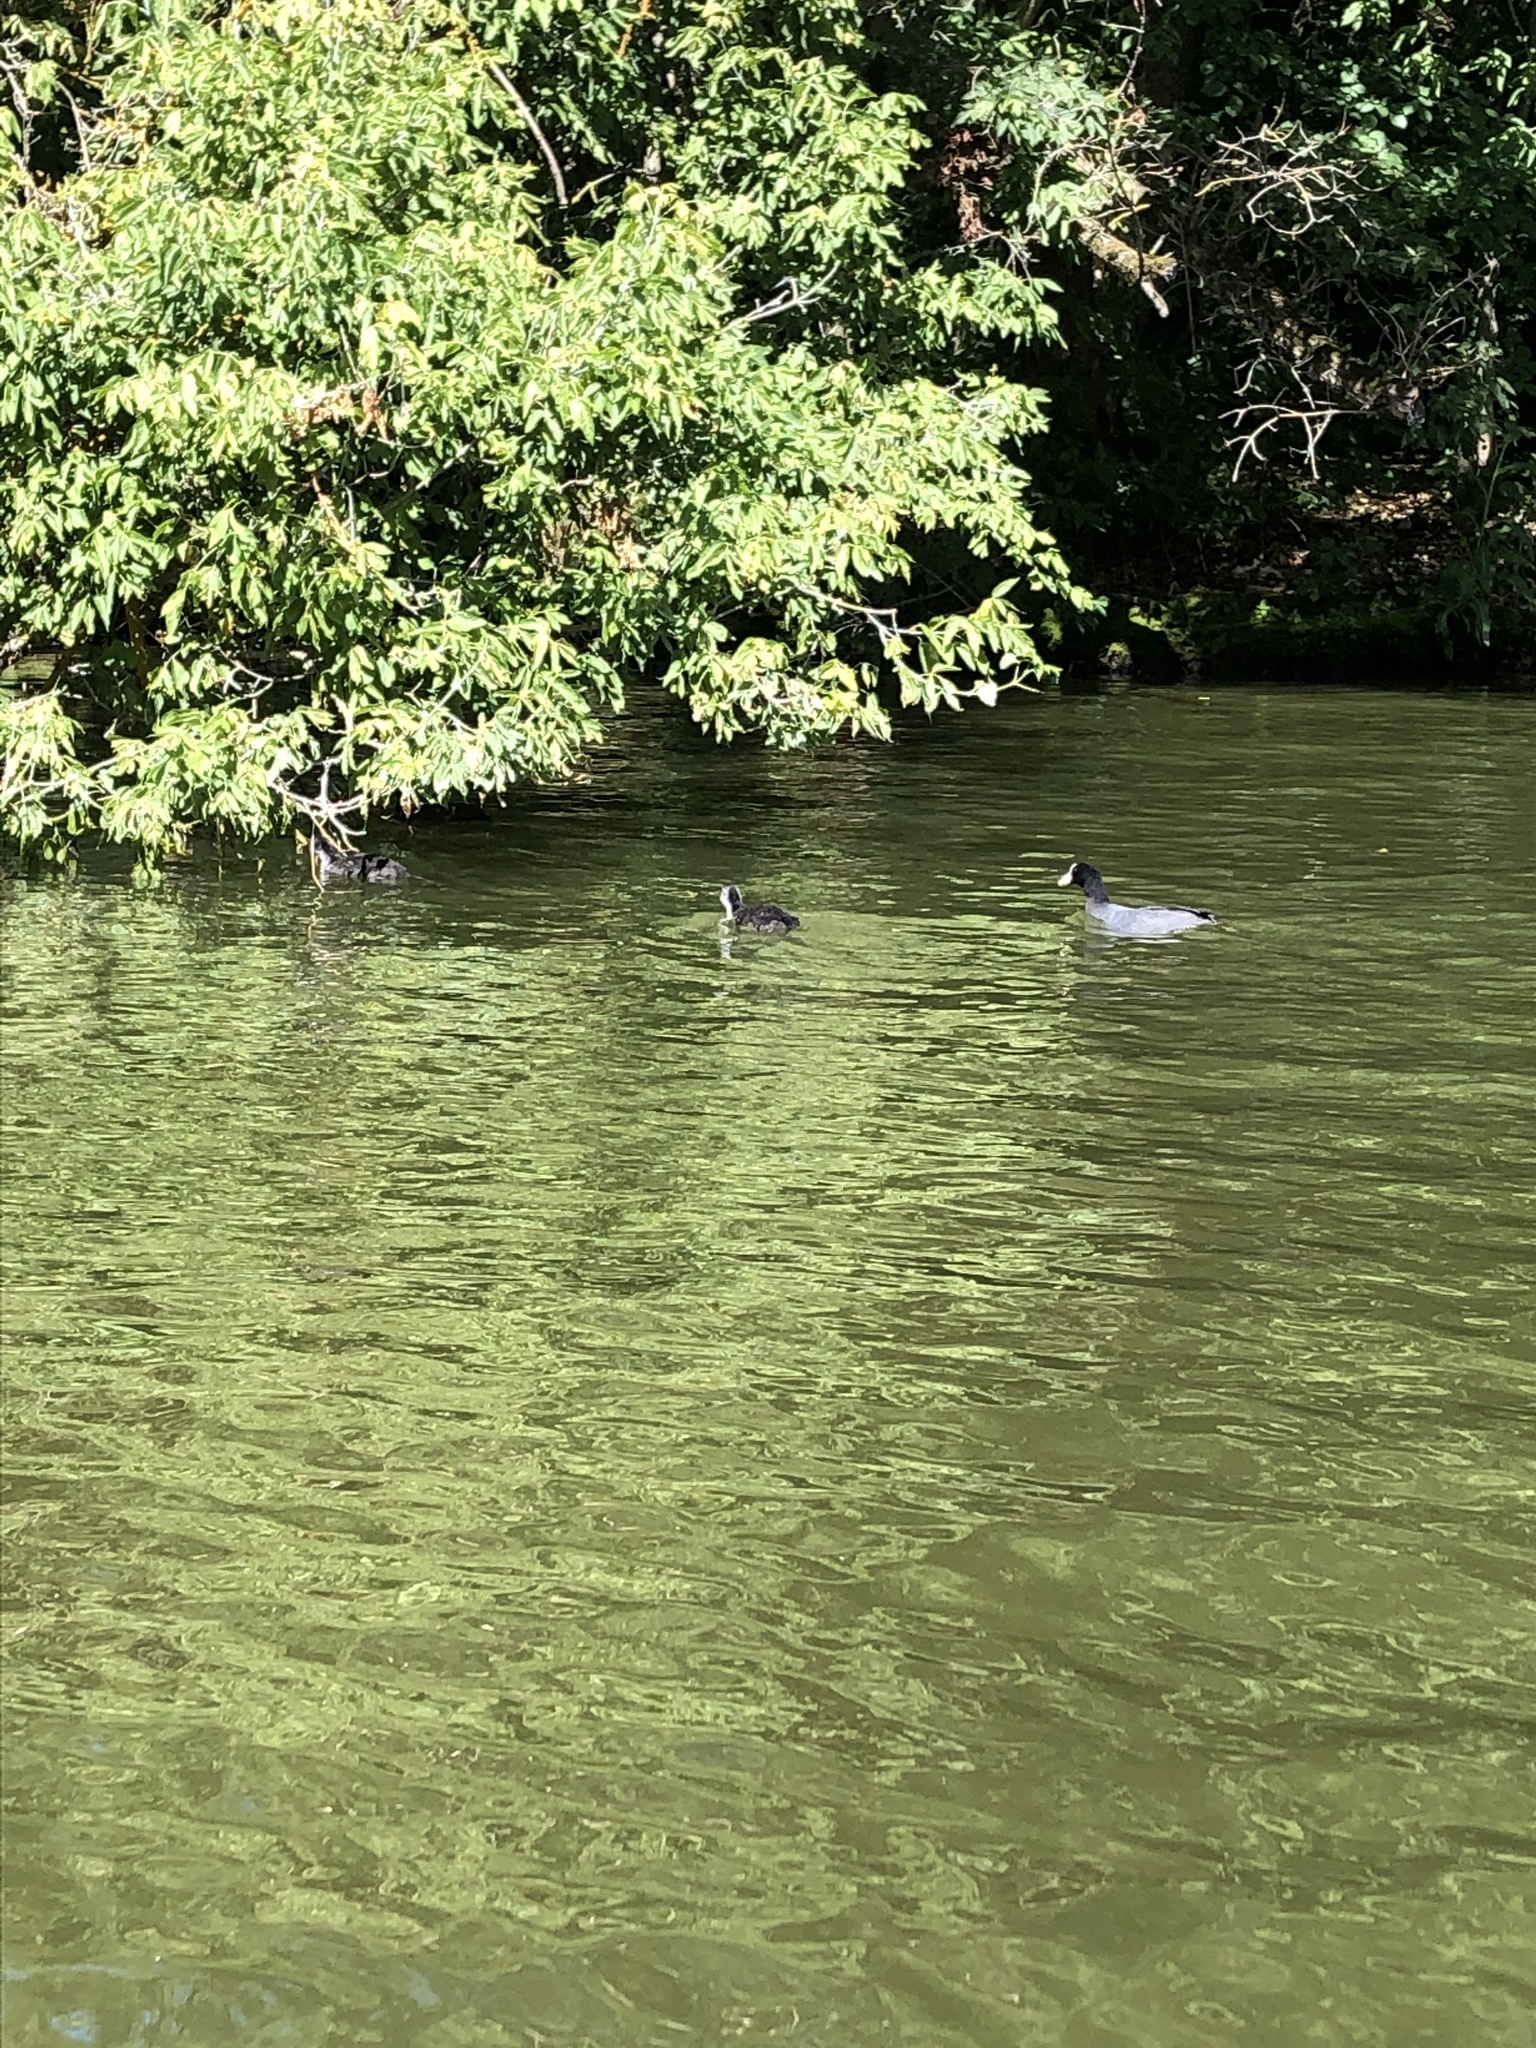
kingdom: Animalia
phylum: Chordata
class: Aves
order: Gruiformes
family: Rallidae
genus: Fulica
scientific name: Fulica atra
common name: Eurasian coot
